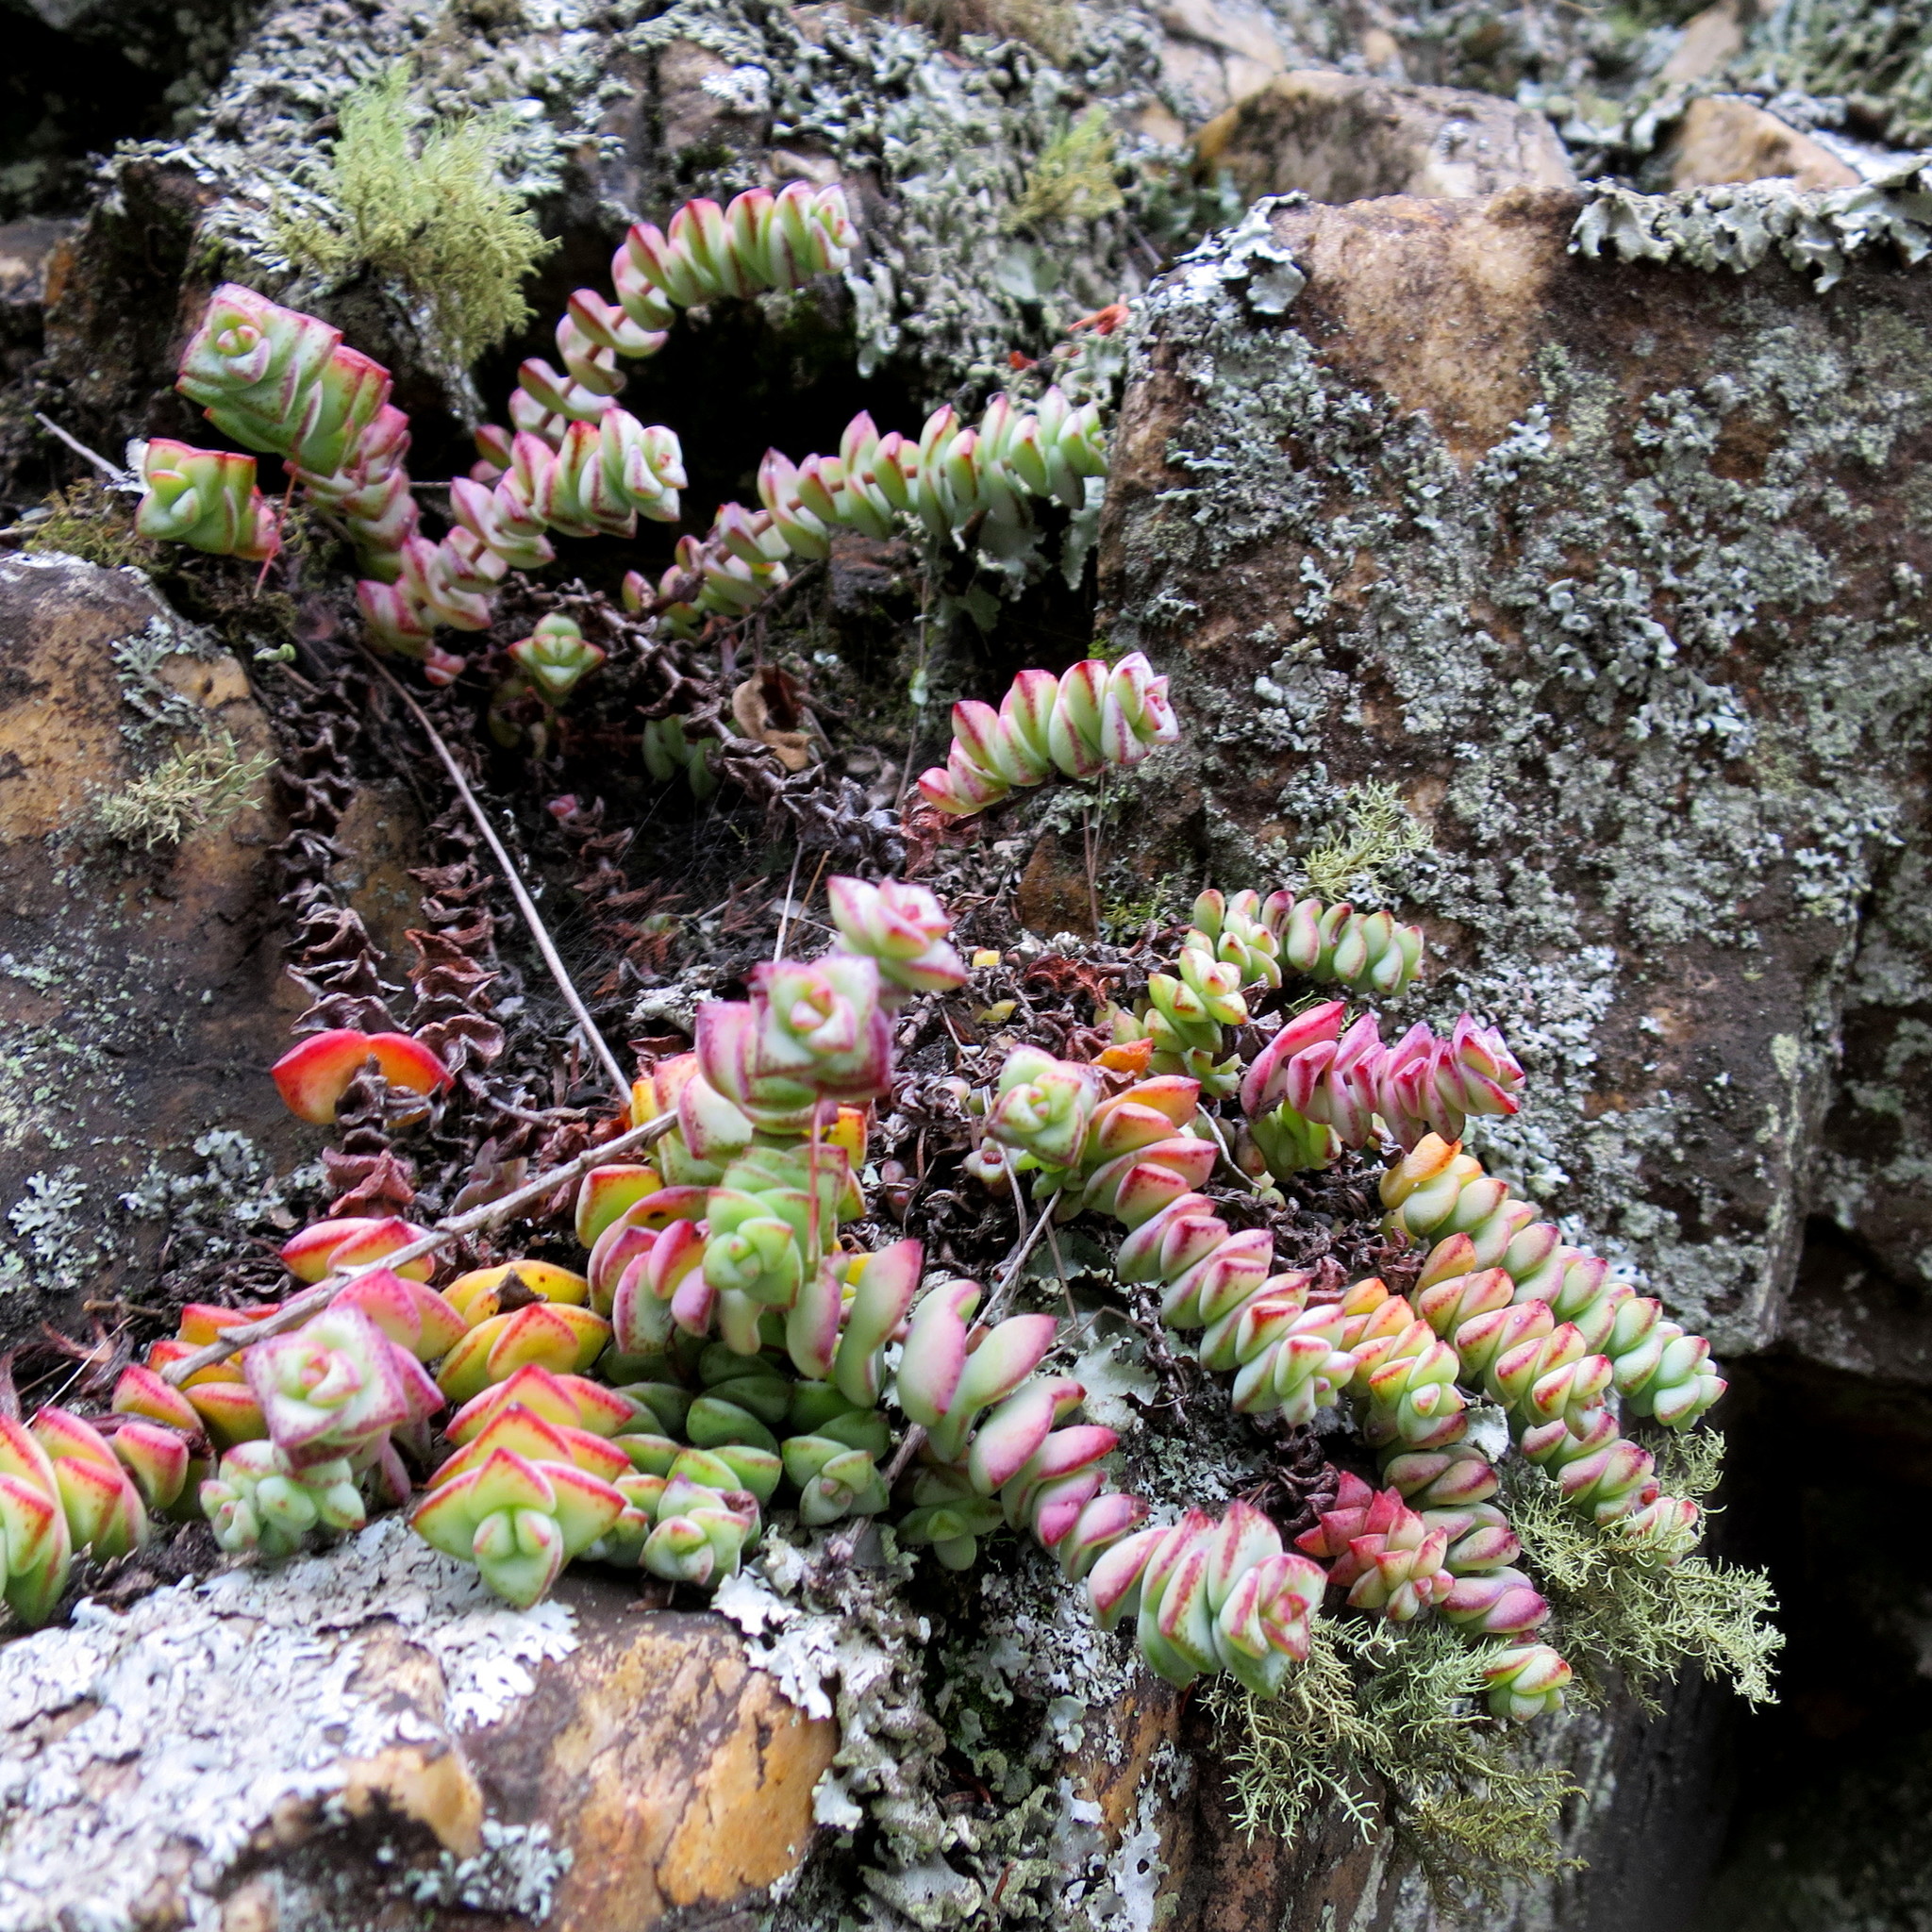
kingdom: Plantae
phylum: Tracheophyta
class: Magnoliopsida
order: Saxifragales
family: Crassulaceae
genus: Crassula
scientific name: Crassula perforata
